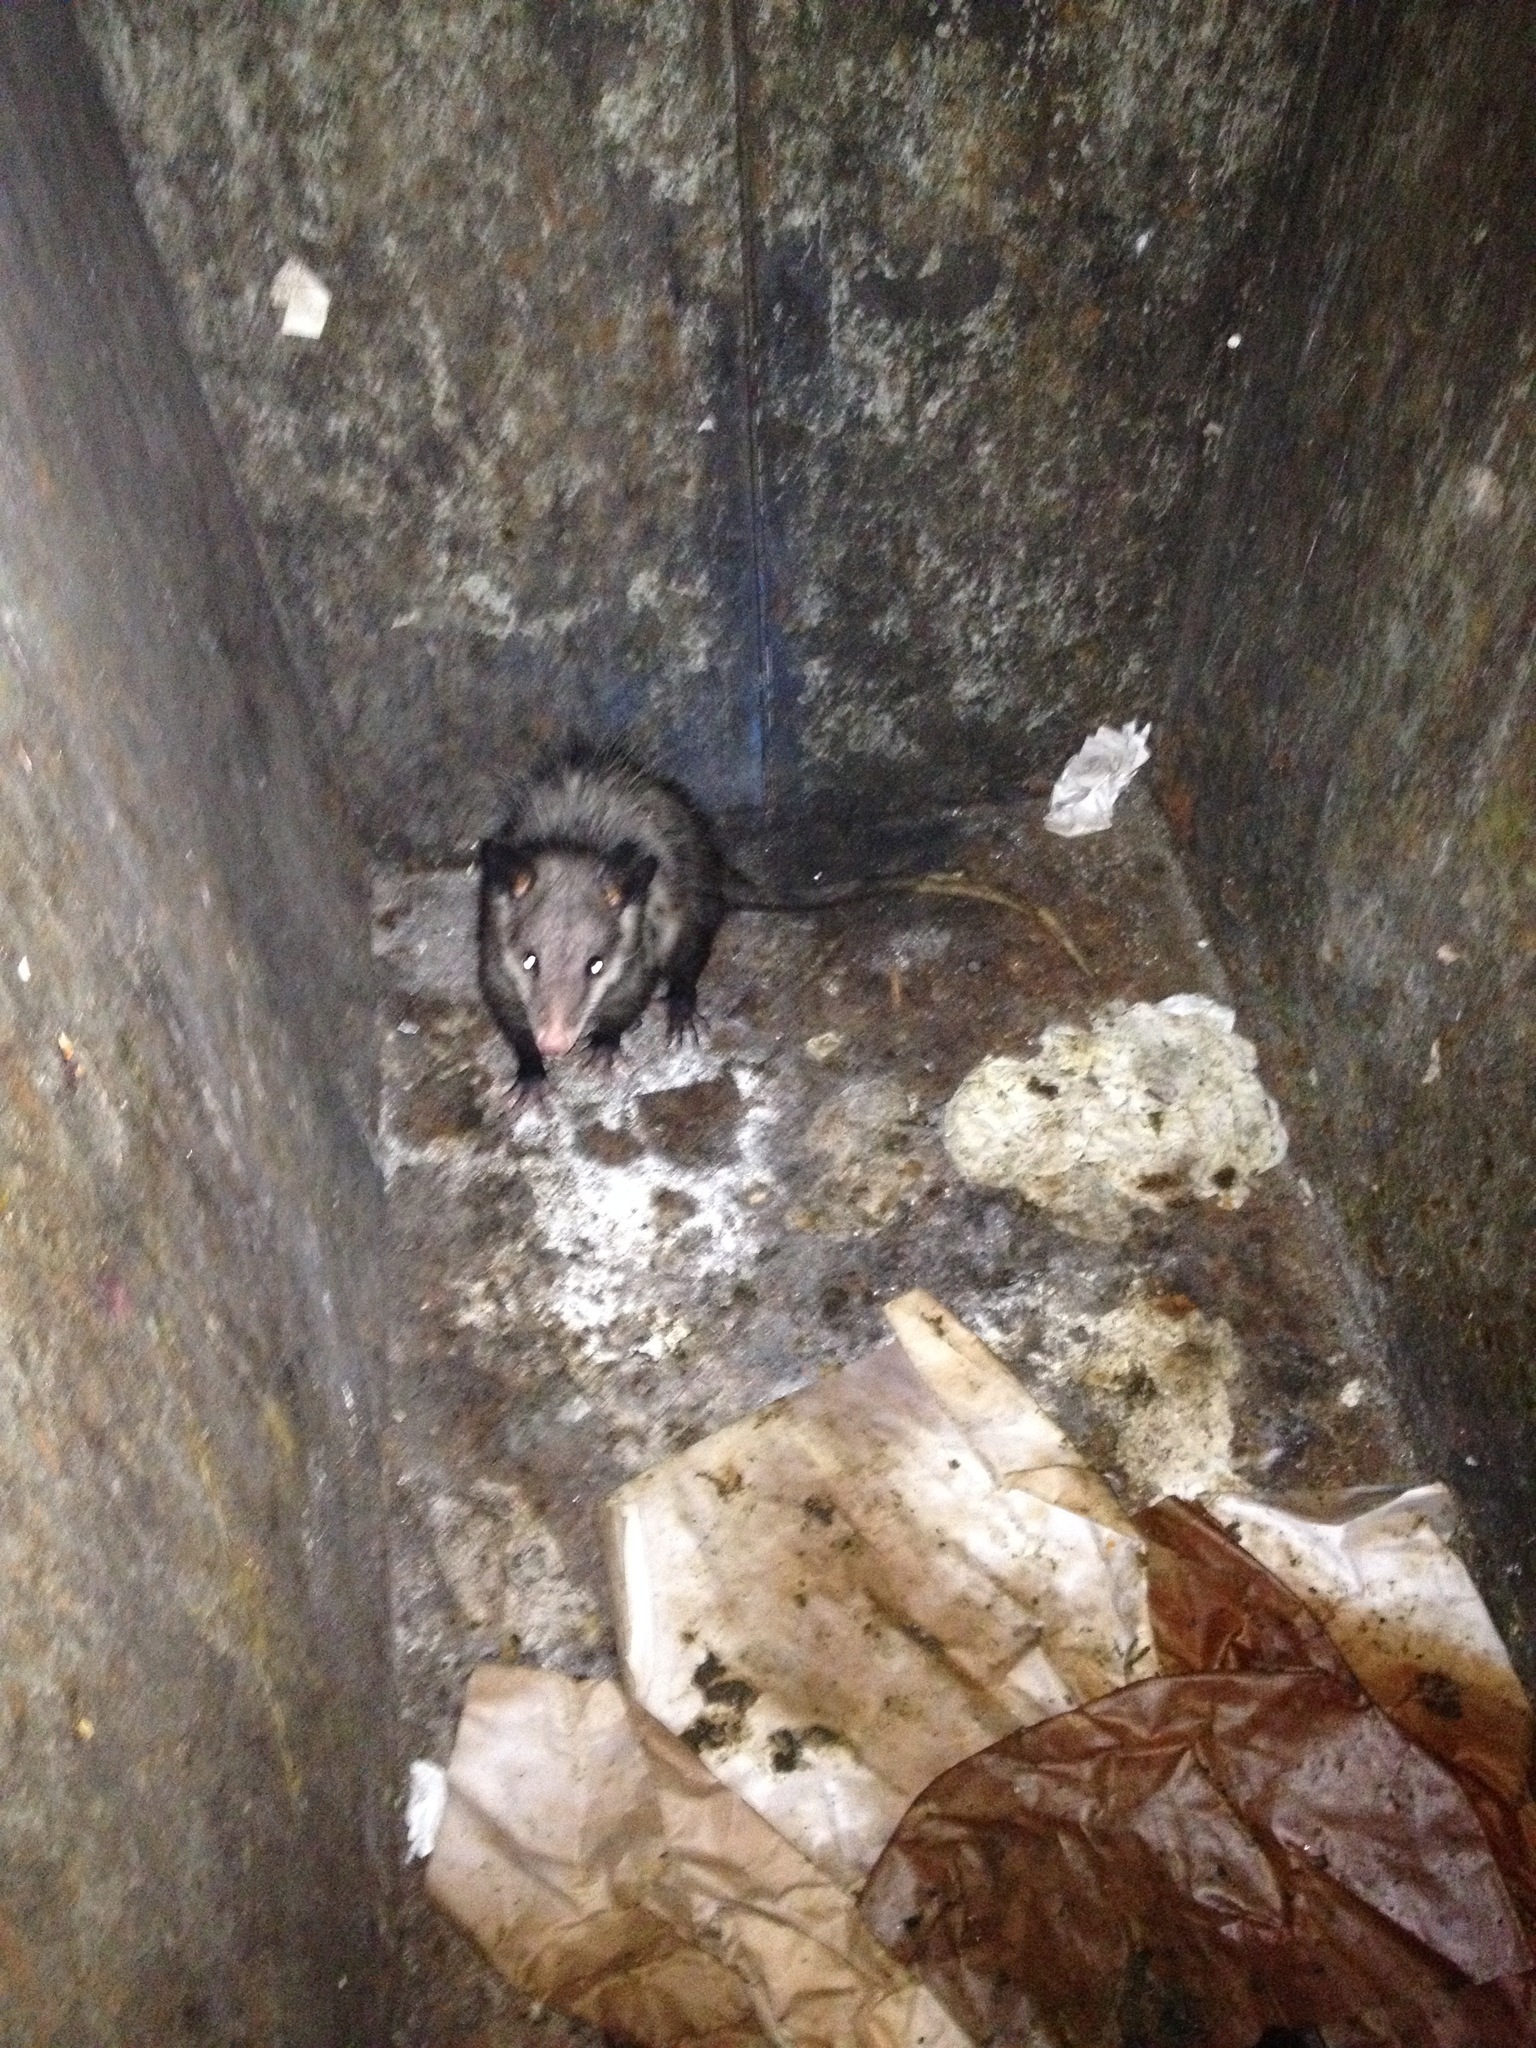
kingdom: Animalia
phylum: Chordata
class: Mammalia
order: Didelphimorphia
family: Didelphidae
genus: Didelphis
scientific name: Didelphis virginiana
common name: Virginia opossum
